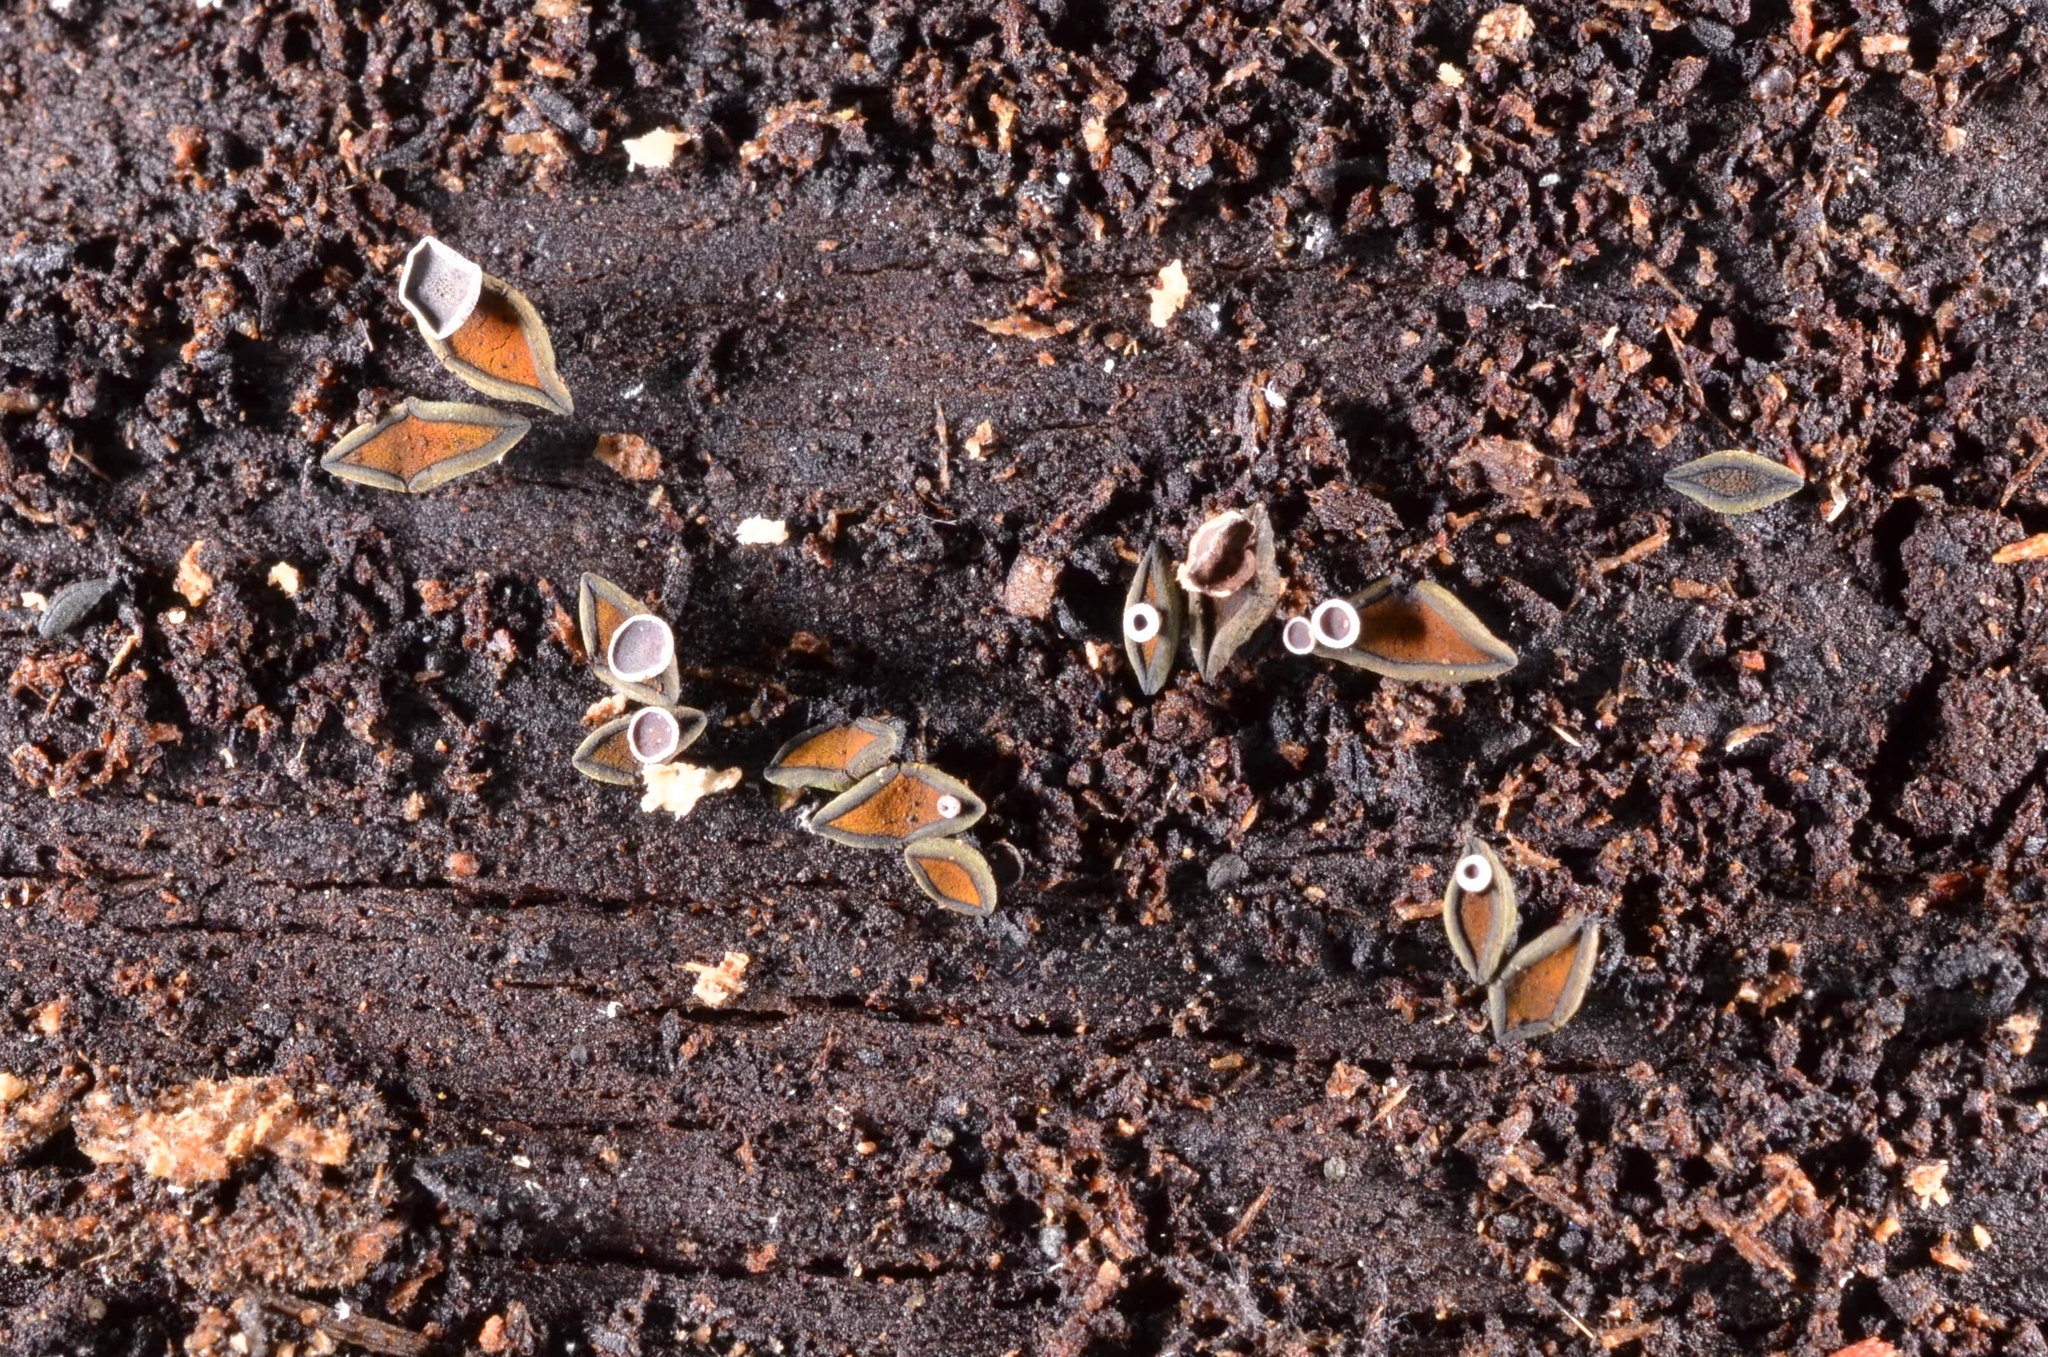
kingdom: Fungi
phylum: Ascomycota
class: Leotiomycetes
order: Helotiales
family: Cordieritidaceae
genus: Unguiculariopsis
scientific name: Unguiculariopsis ravenelii
